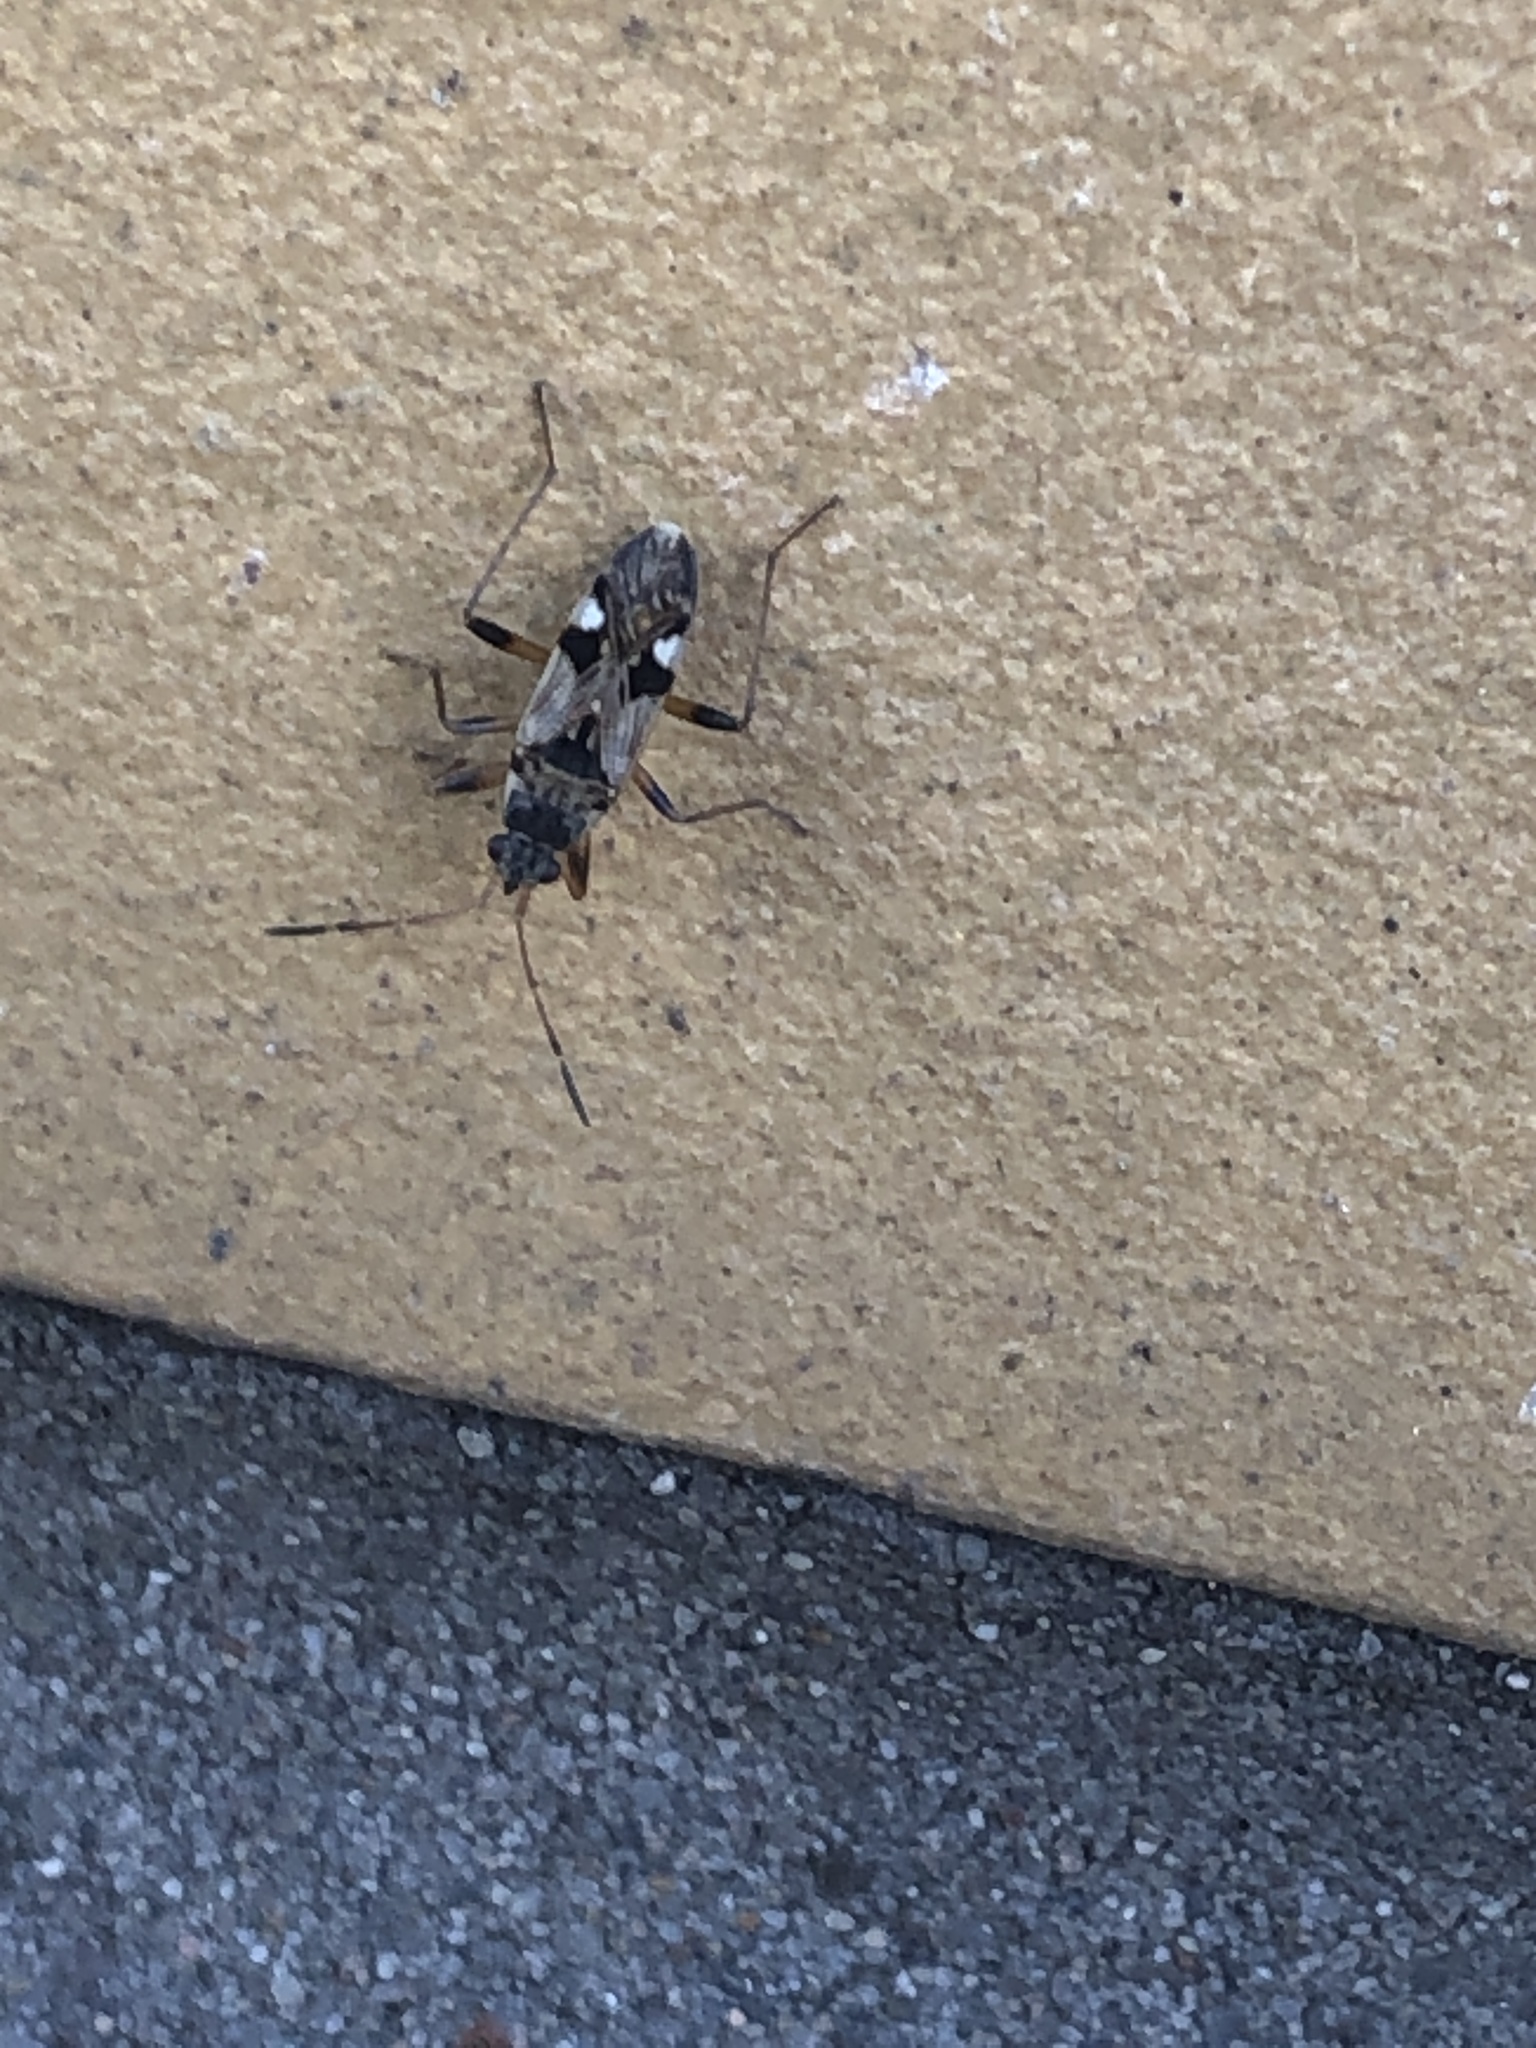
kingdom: Animalia
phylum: Arthropoda
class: Insecta
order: Hemiptera
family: Rhyparochromidae
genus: Beosus
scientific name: Beosus maritimus
